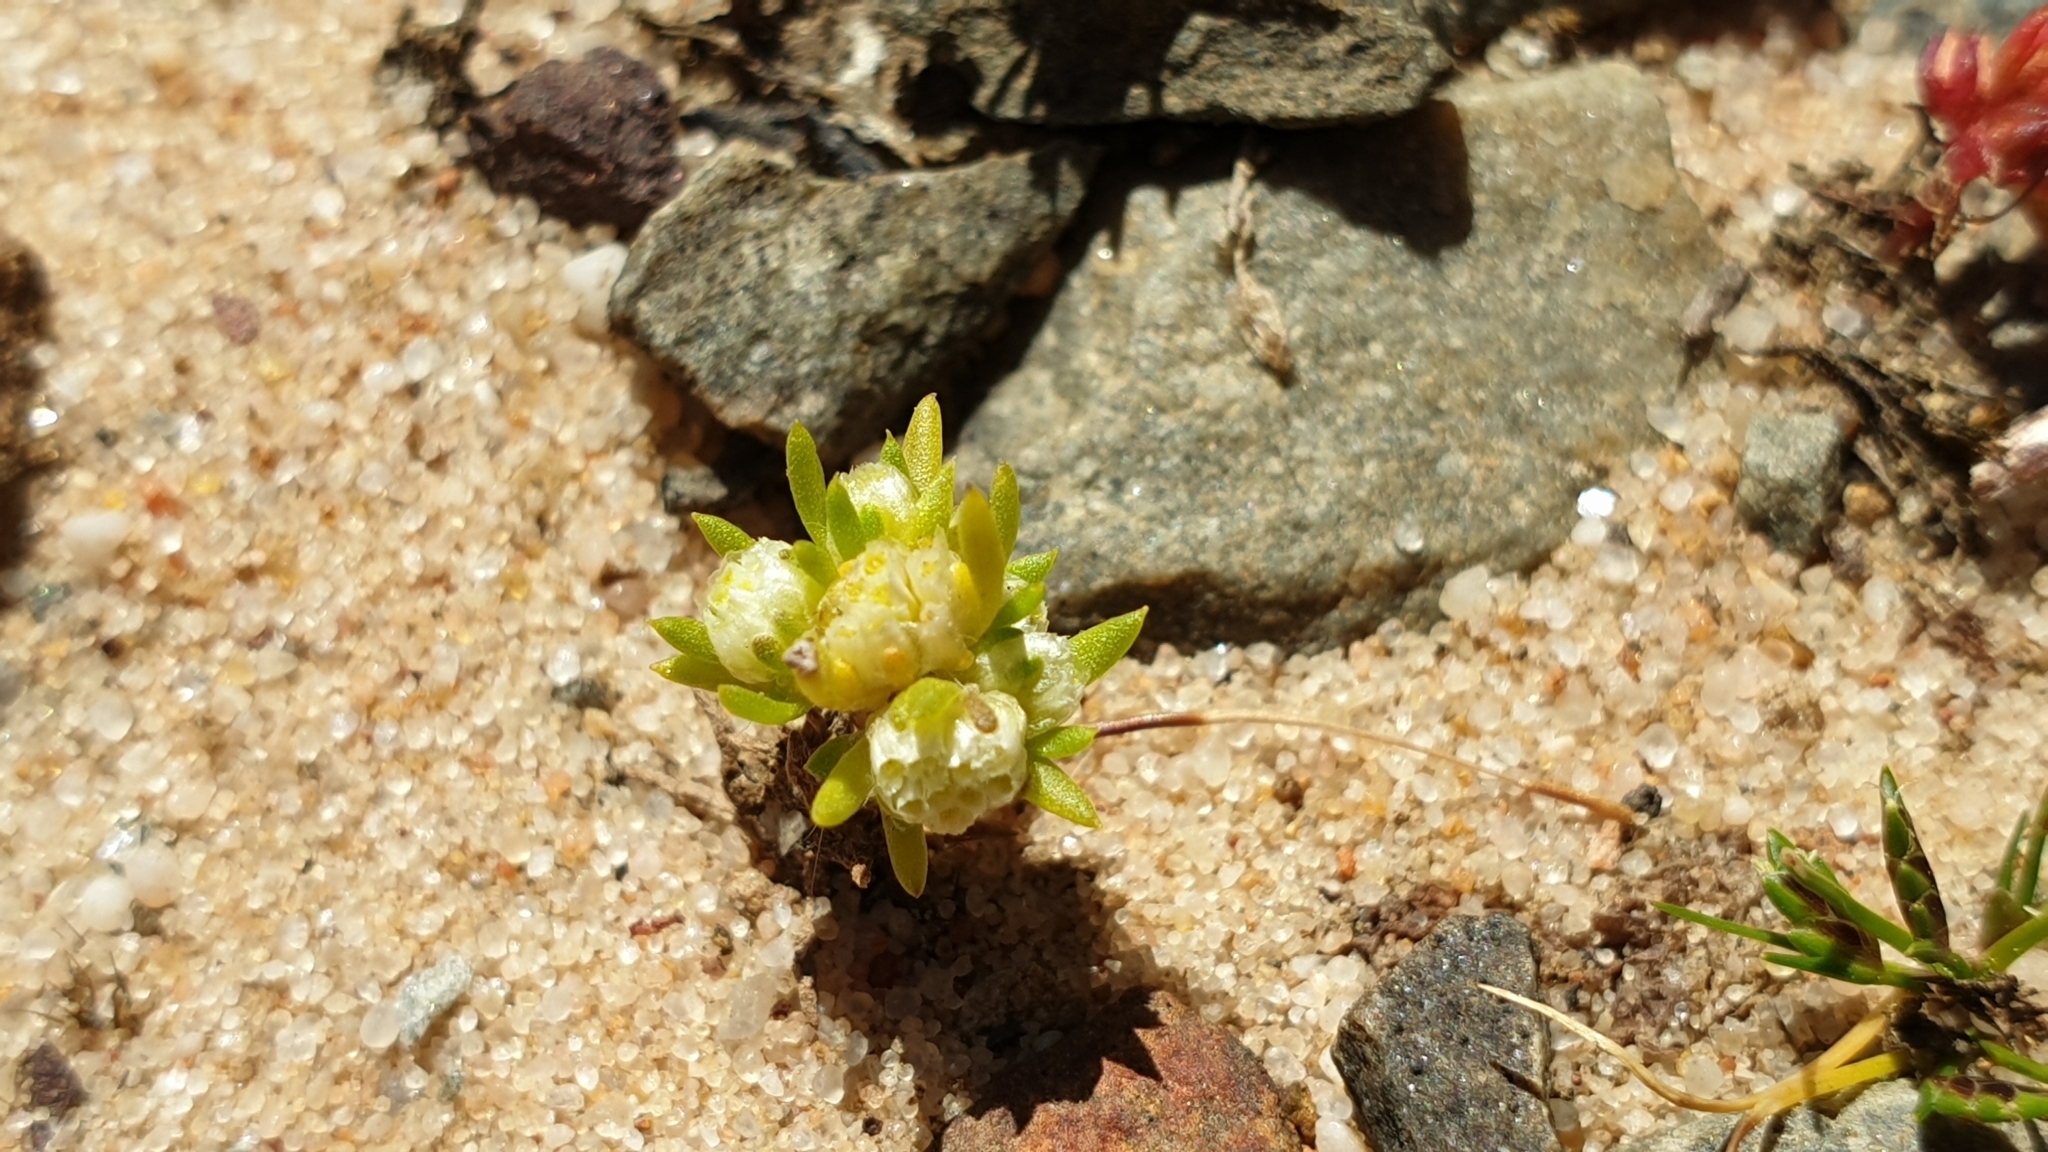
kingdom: Plantae
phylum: Tracheophyta
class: Magnoliopsida
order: Asterales
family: Asteraceae
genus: Siloxerus
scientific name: Siloxerus multiflorus
